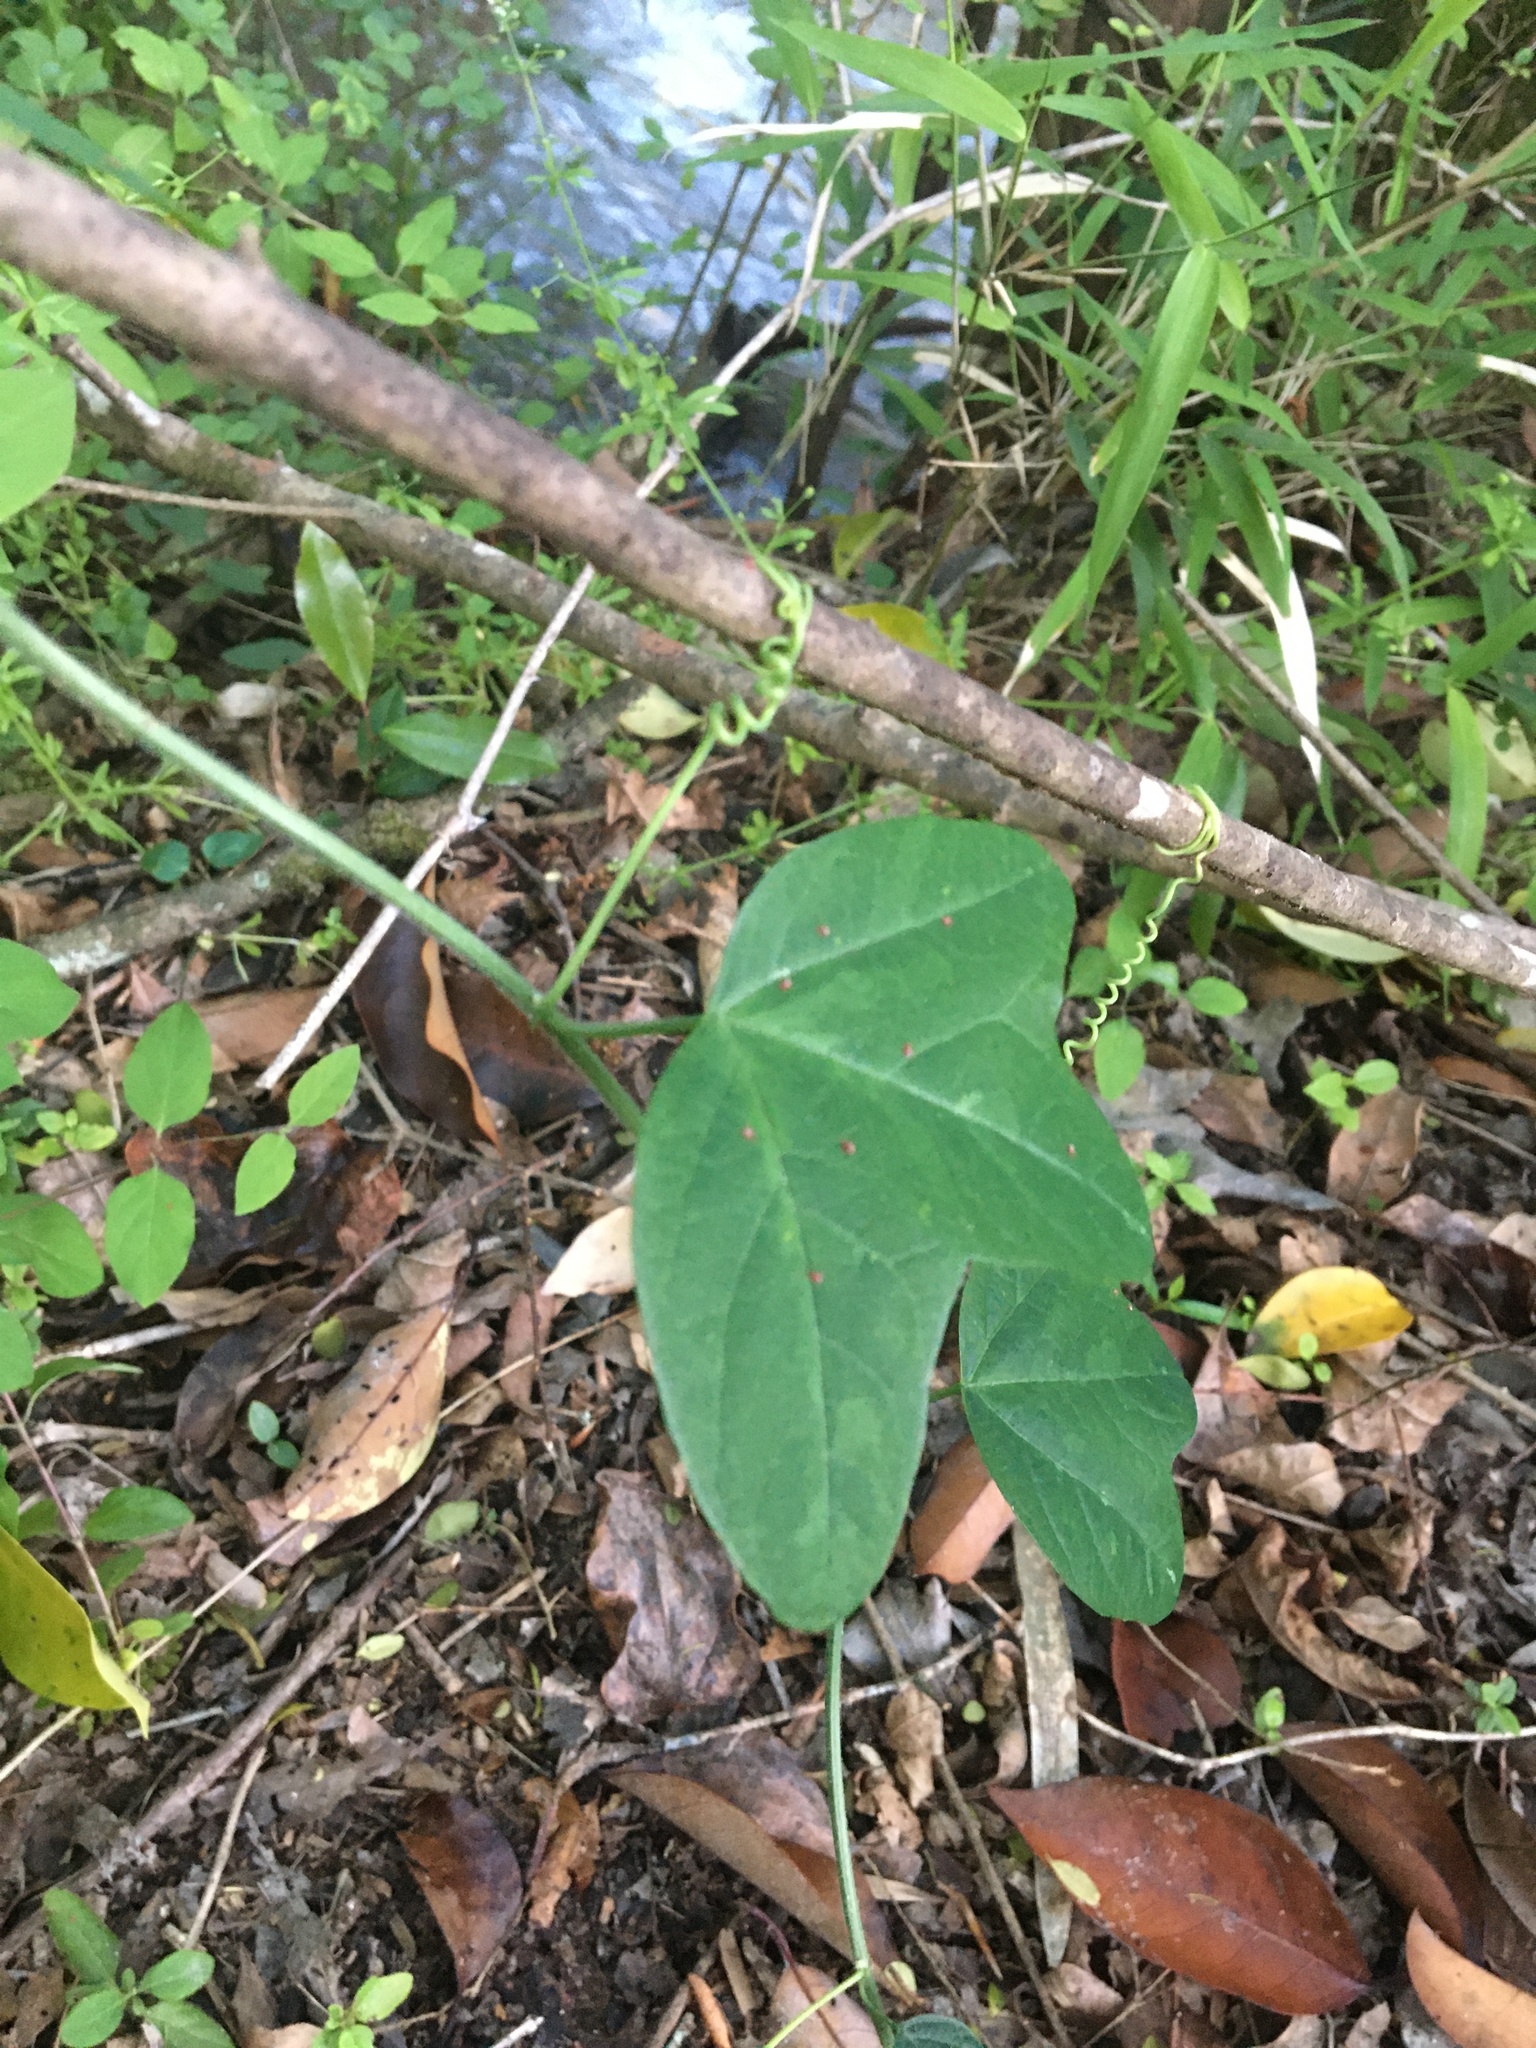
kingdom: Plantae
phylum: Tracheophyta
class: Magnoliopsida
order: Malpighiales
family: Passifloraceae
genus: Passiflora
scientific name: Passiflora lutea
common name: Yellow passionflower
